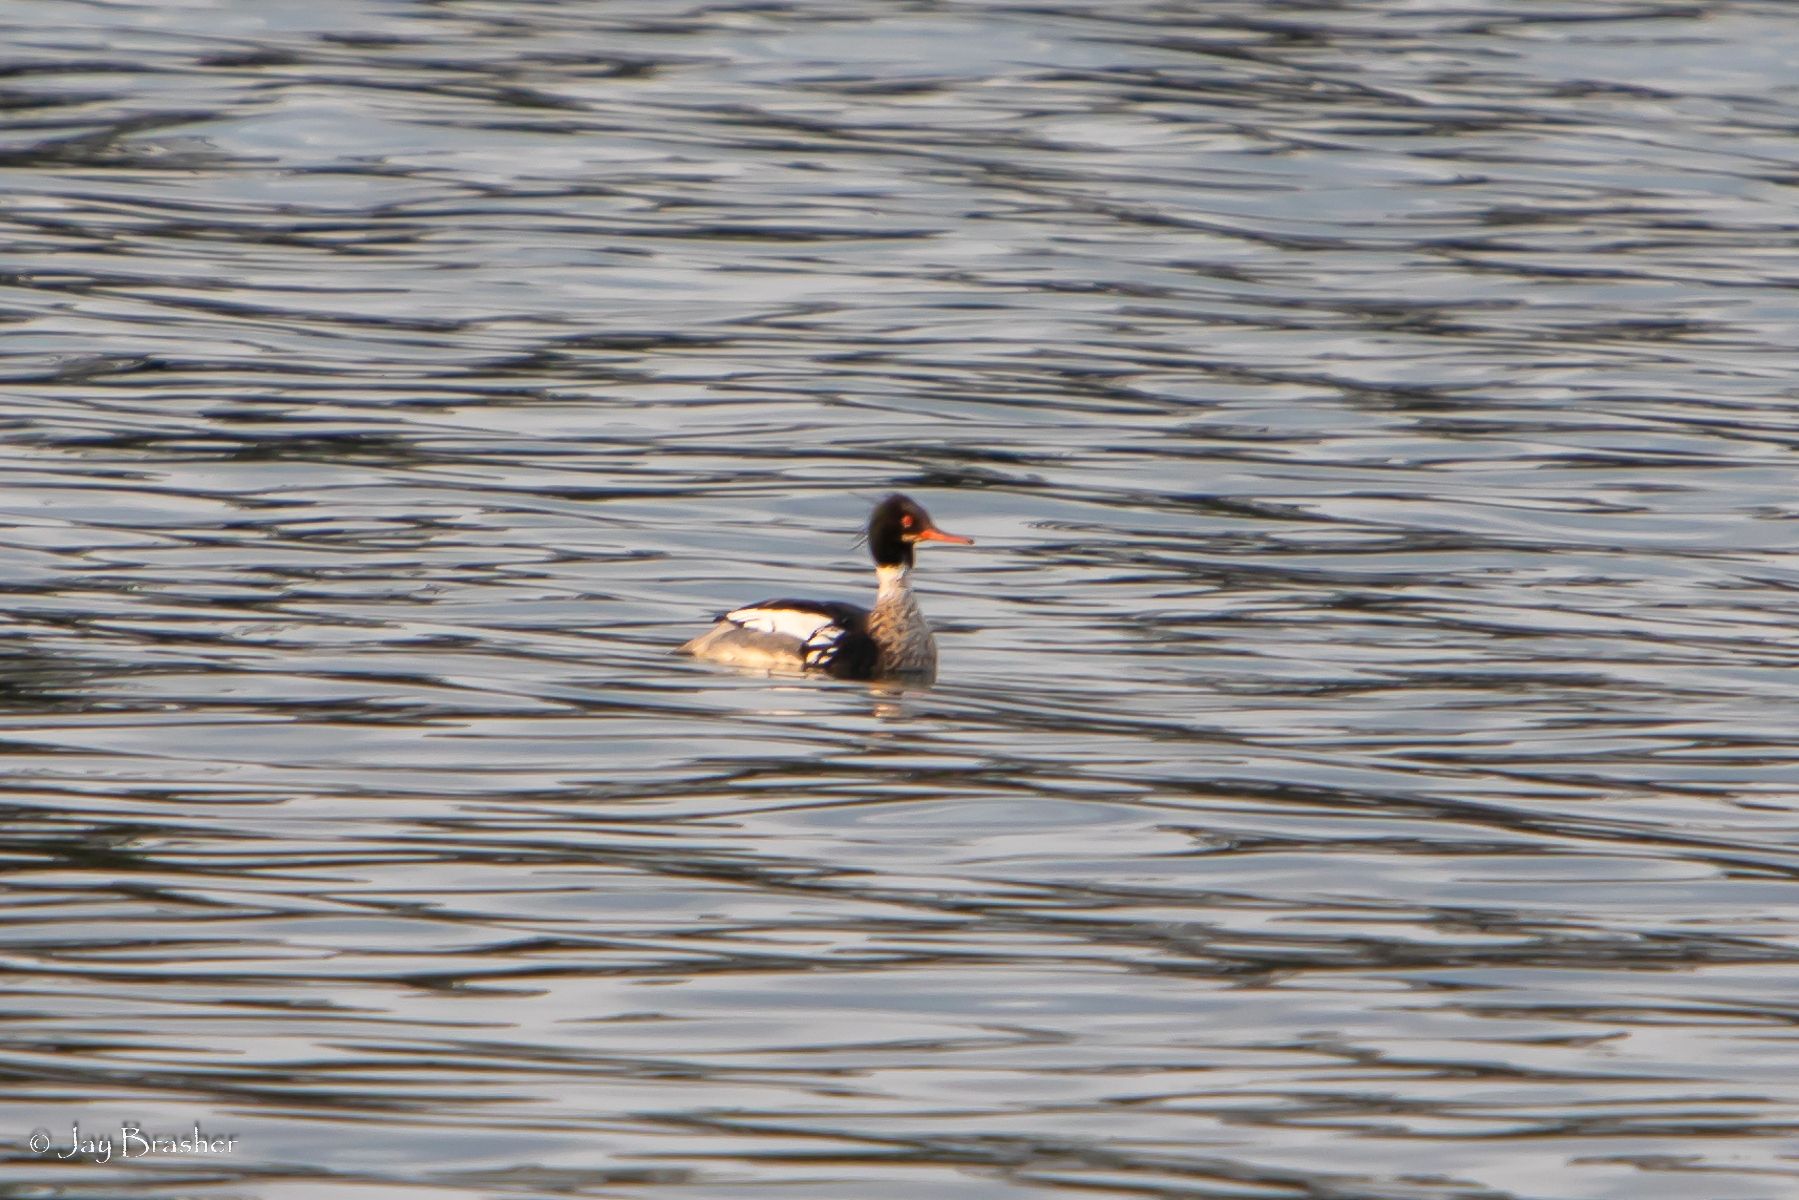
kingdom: Animalia
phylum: Chordata
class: Aves
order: Anseriformes
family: Anatidae
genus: Mergus
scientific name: Mergus serrator
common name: Red-breasted merganser
